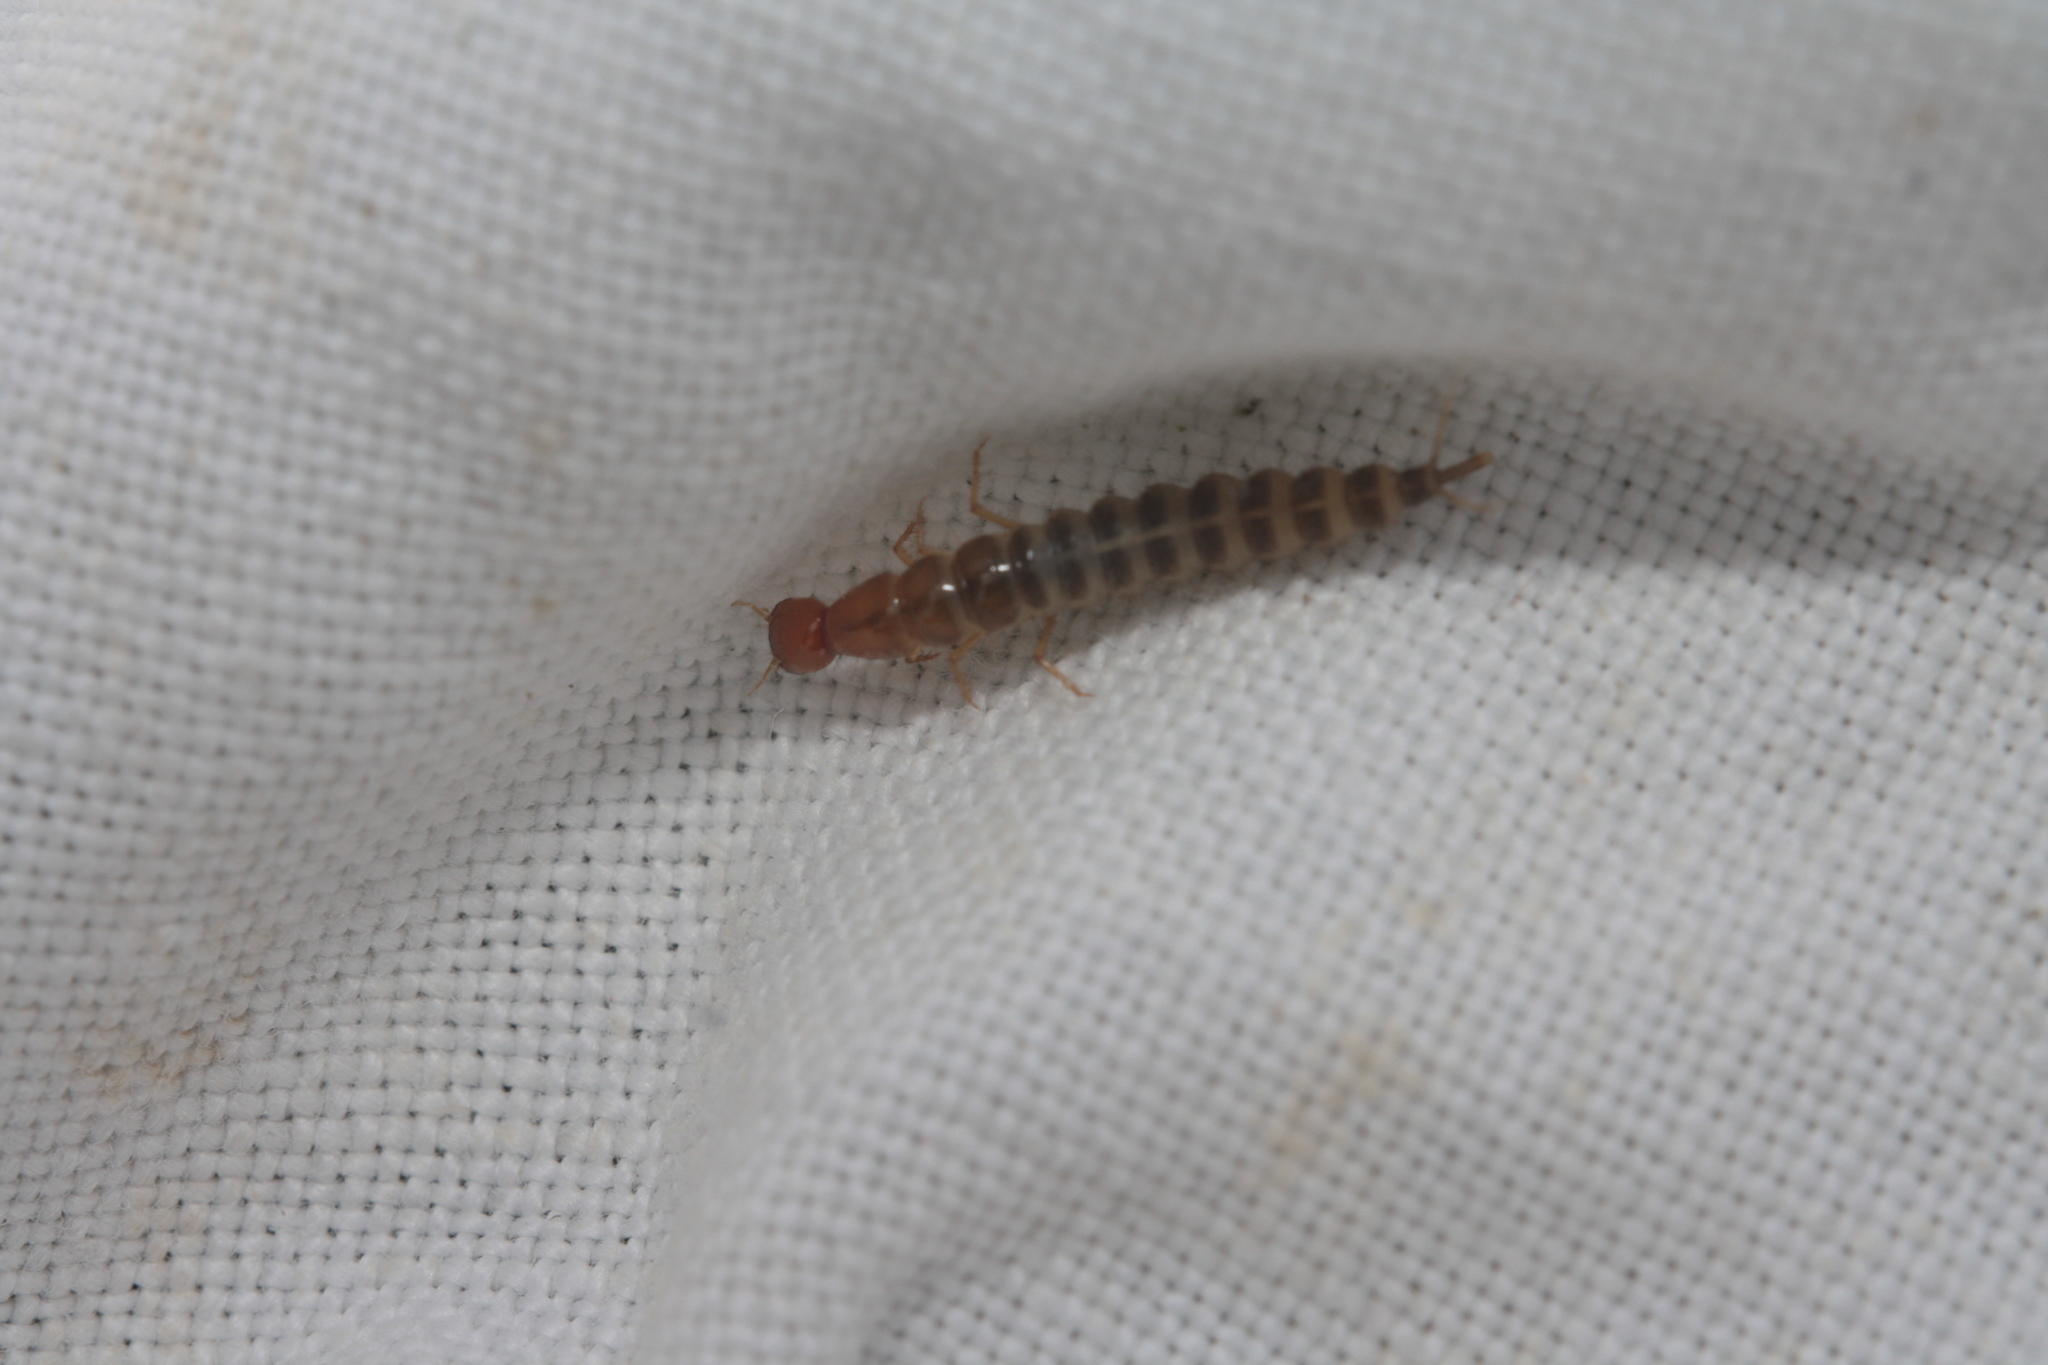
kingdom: Animalia
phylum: Arthropoda
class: Insecta
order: Coleoptera
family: Staphyliniae
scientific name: Staphyliniae
